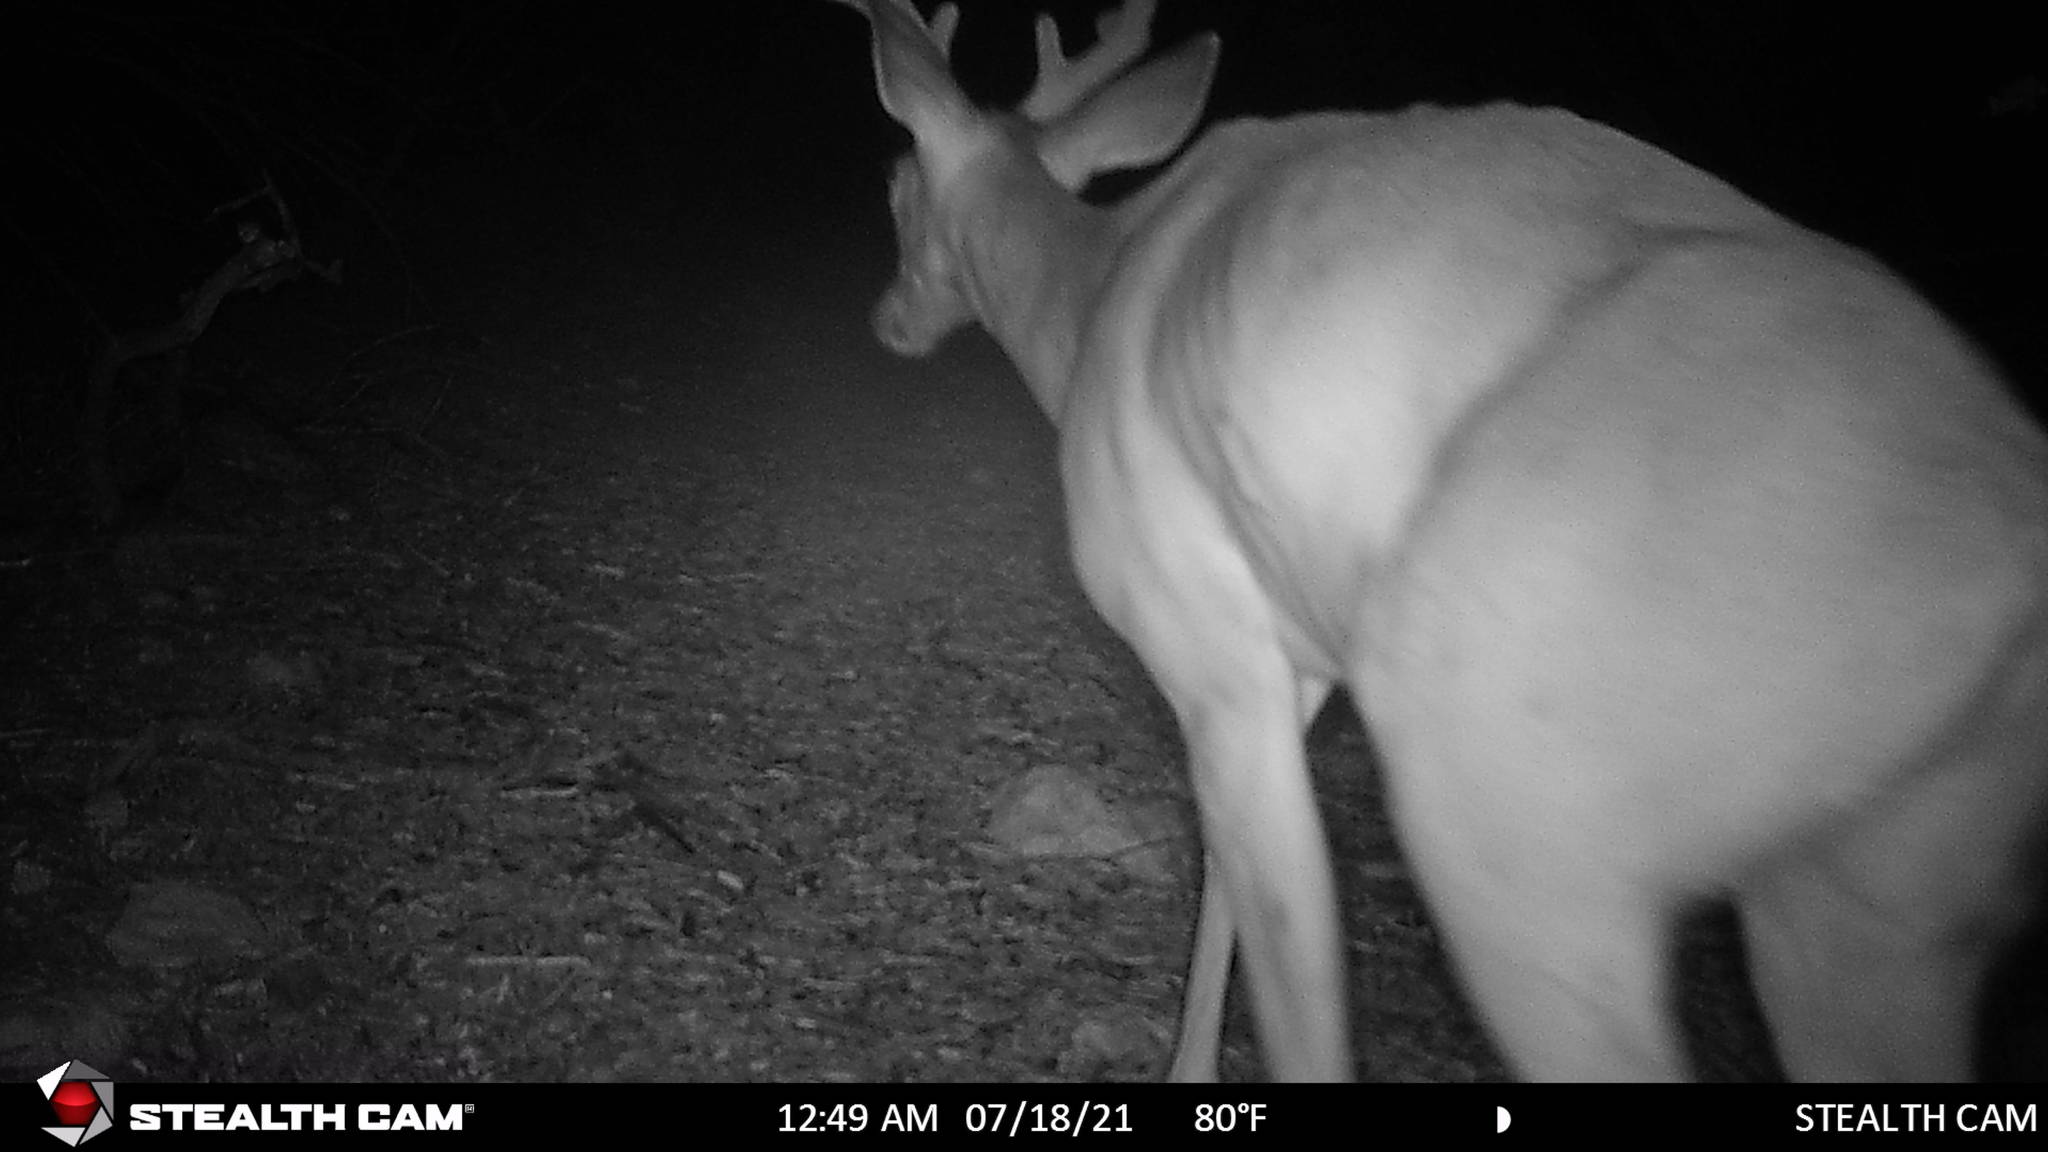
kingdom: Animalia
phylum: Chordata
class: Mammalia
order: Artiodactyla
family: Cervidae
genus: Odocoileus
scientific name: Odocoileus virginianus
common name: White-tailed deer
